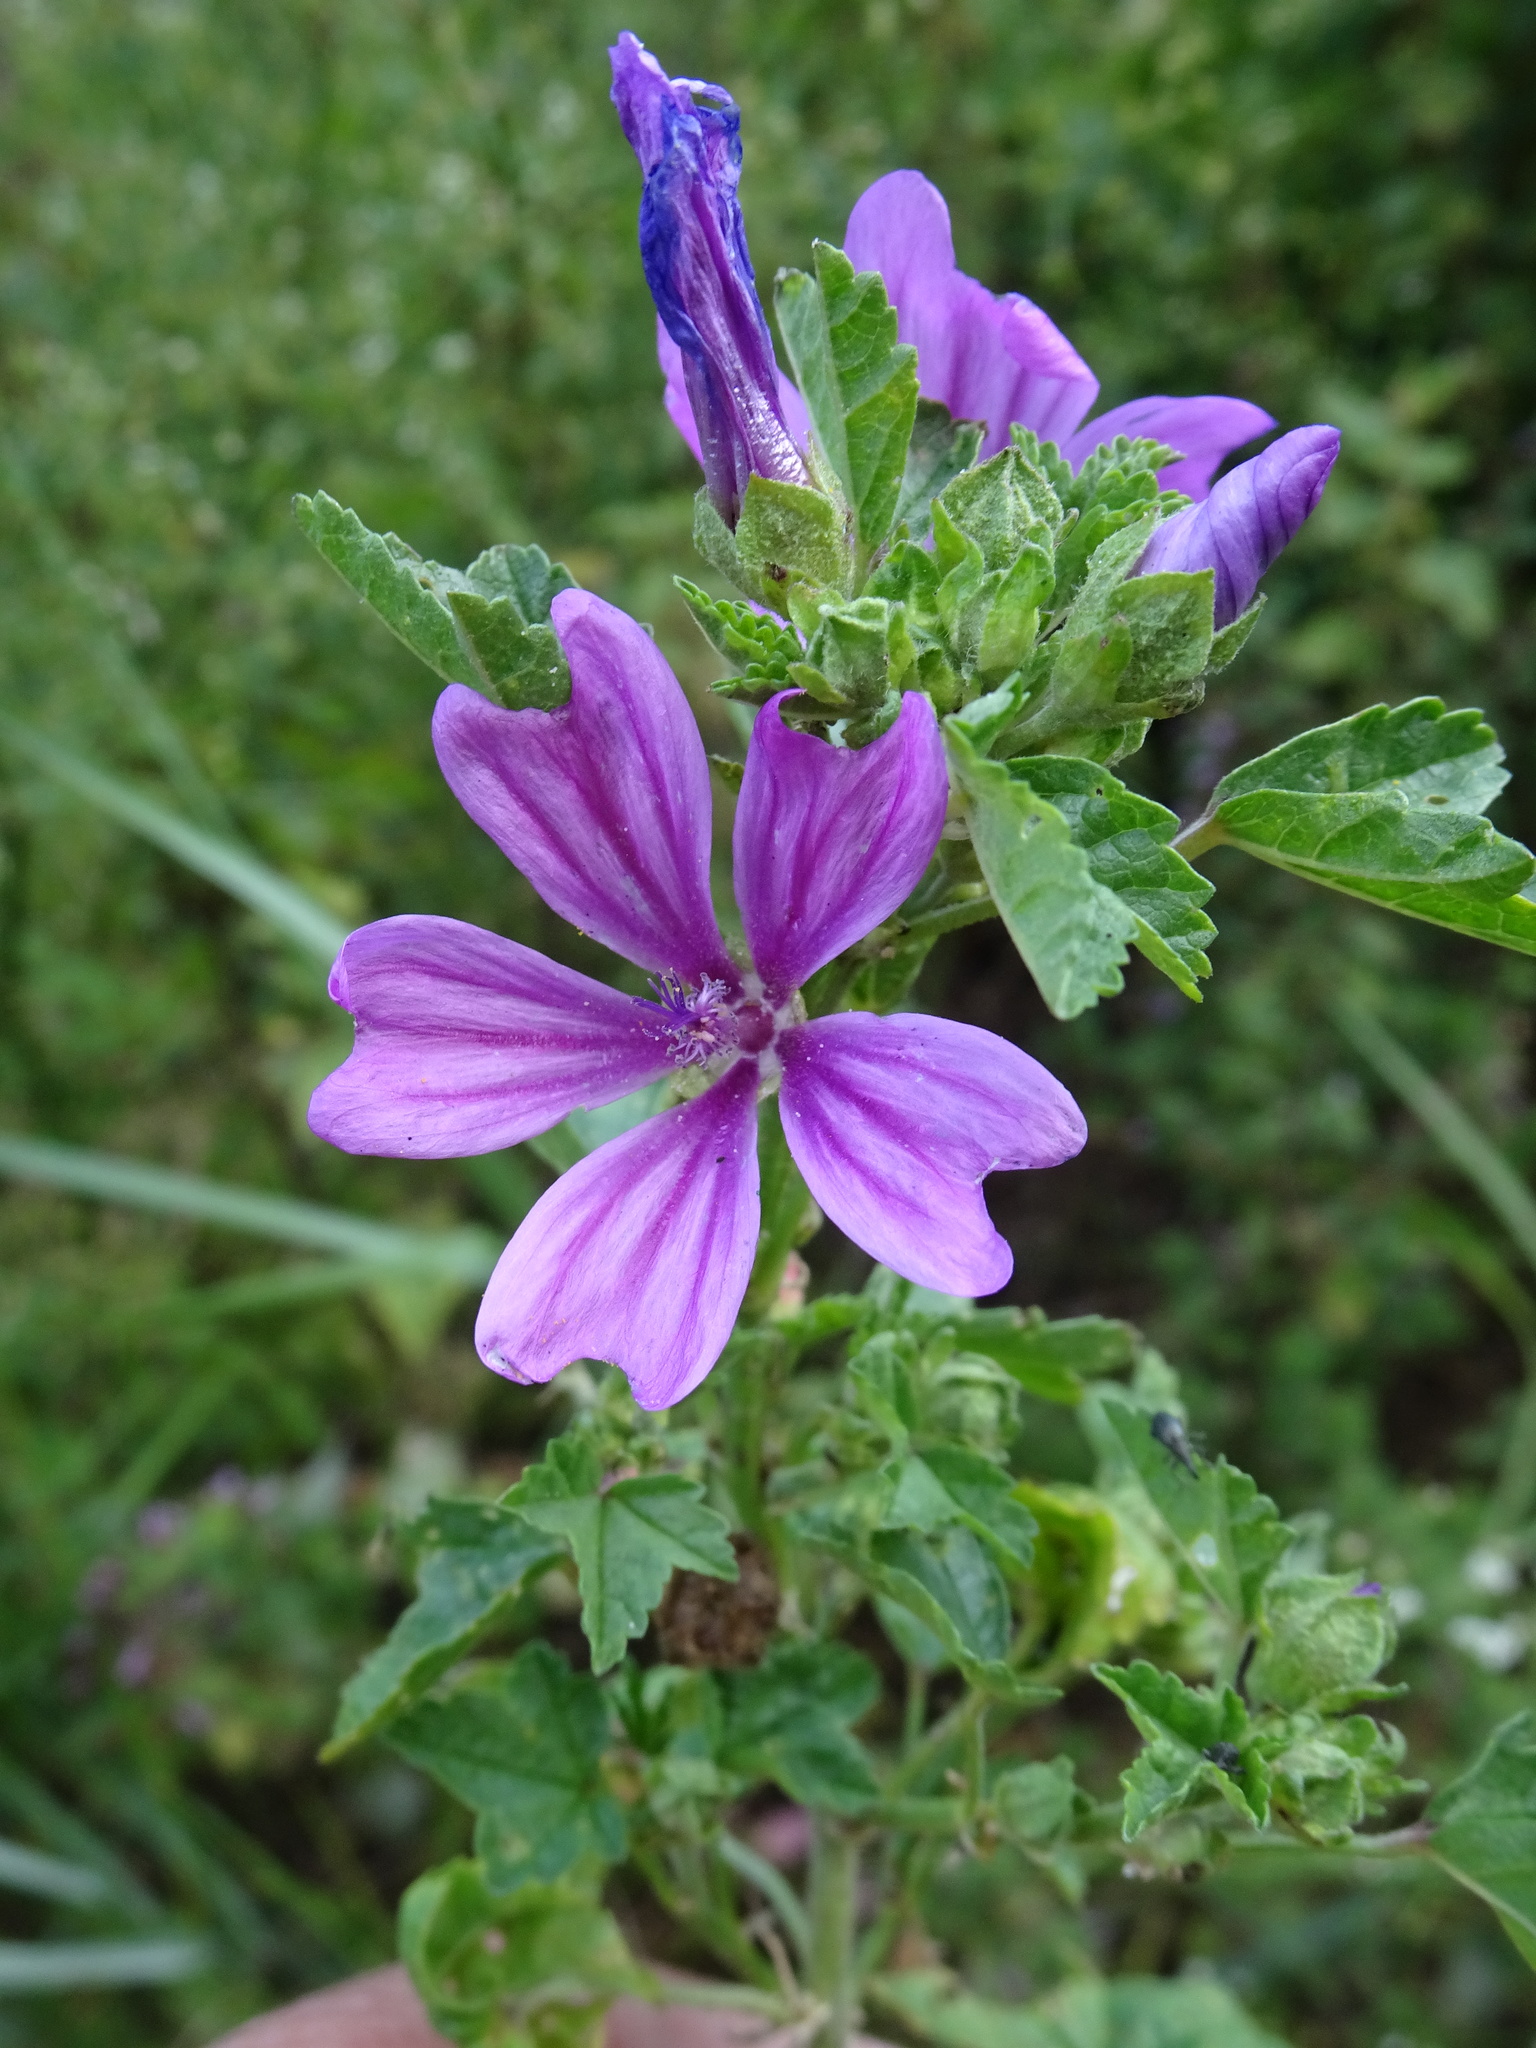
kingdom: Plantae
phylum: Tracheophyta
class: Magnoliopsida
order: Malvales
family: Malvaceae
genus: Malva
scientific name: Malva sylvestris
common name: Common mallow
